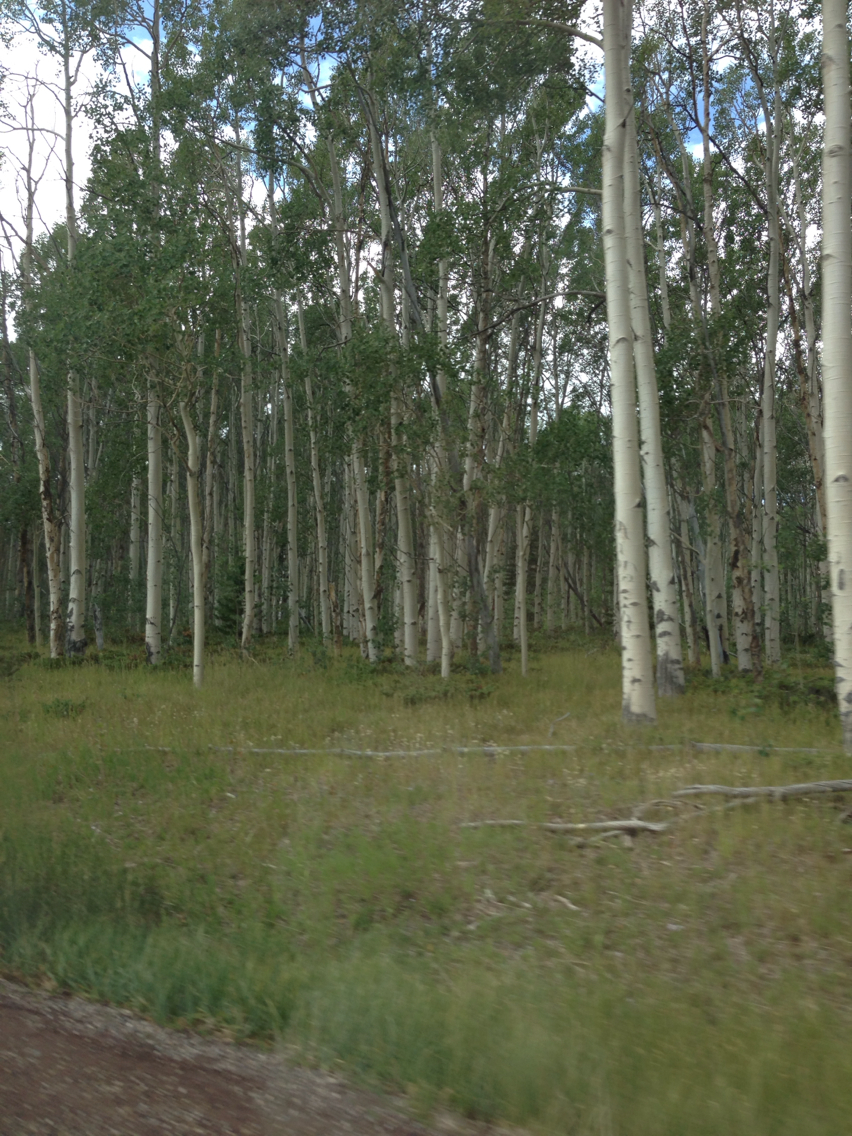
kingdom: Plantae
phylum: Tracheophyta
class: Magnoliopsida
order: Malpighiales
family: Salicaceae
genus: Populus
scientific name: Populus tremuloides
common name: Quaking aspen
